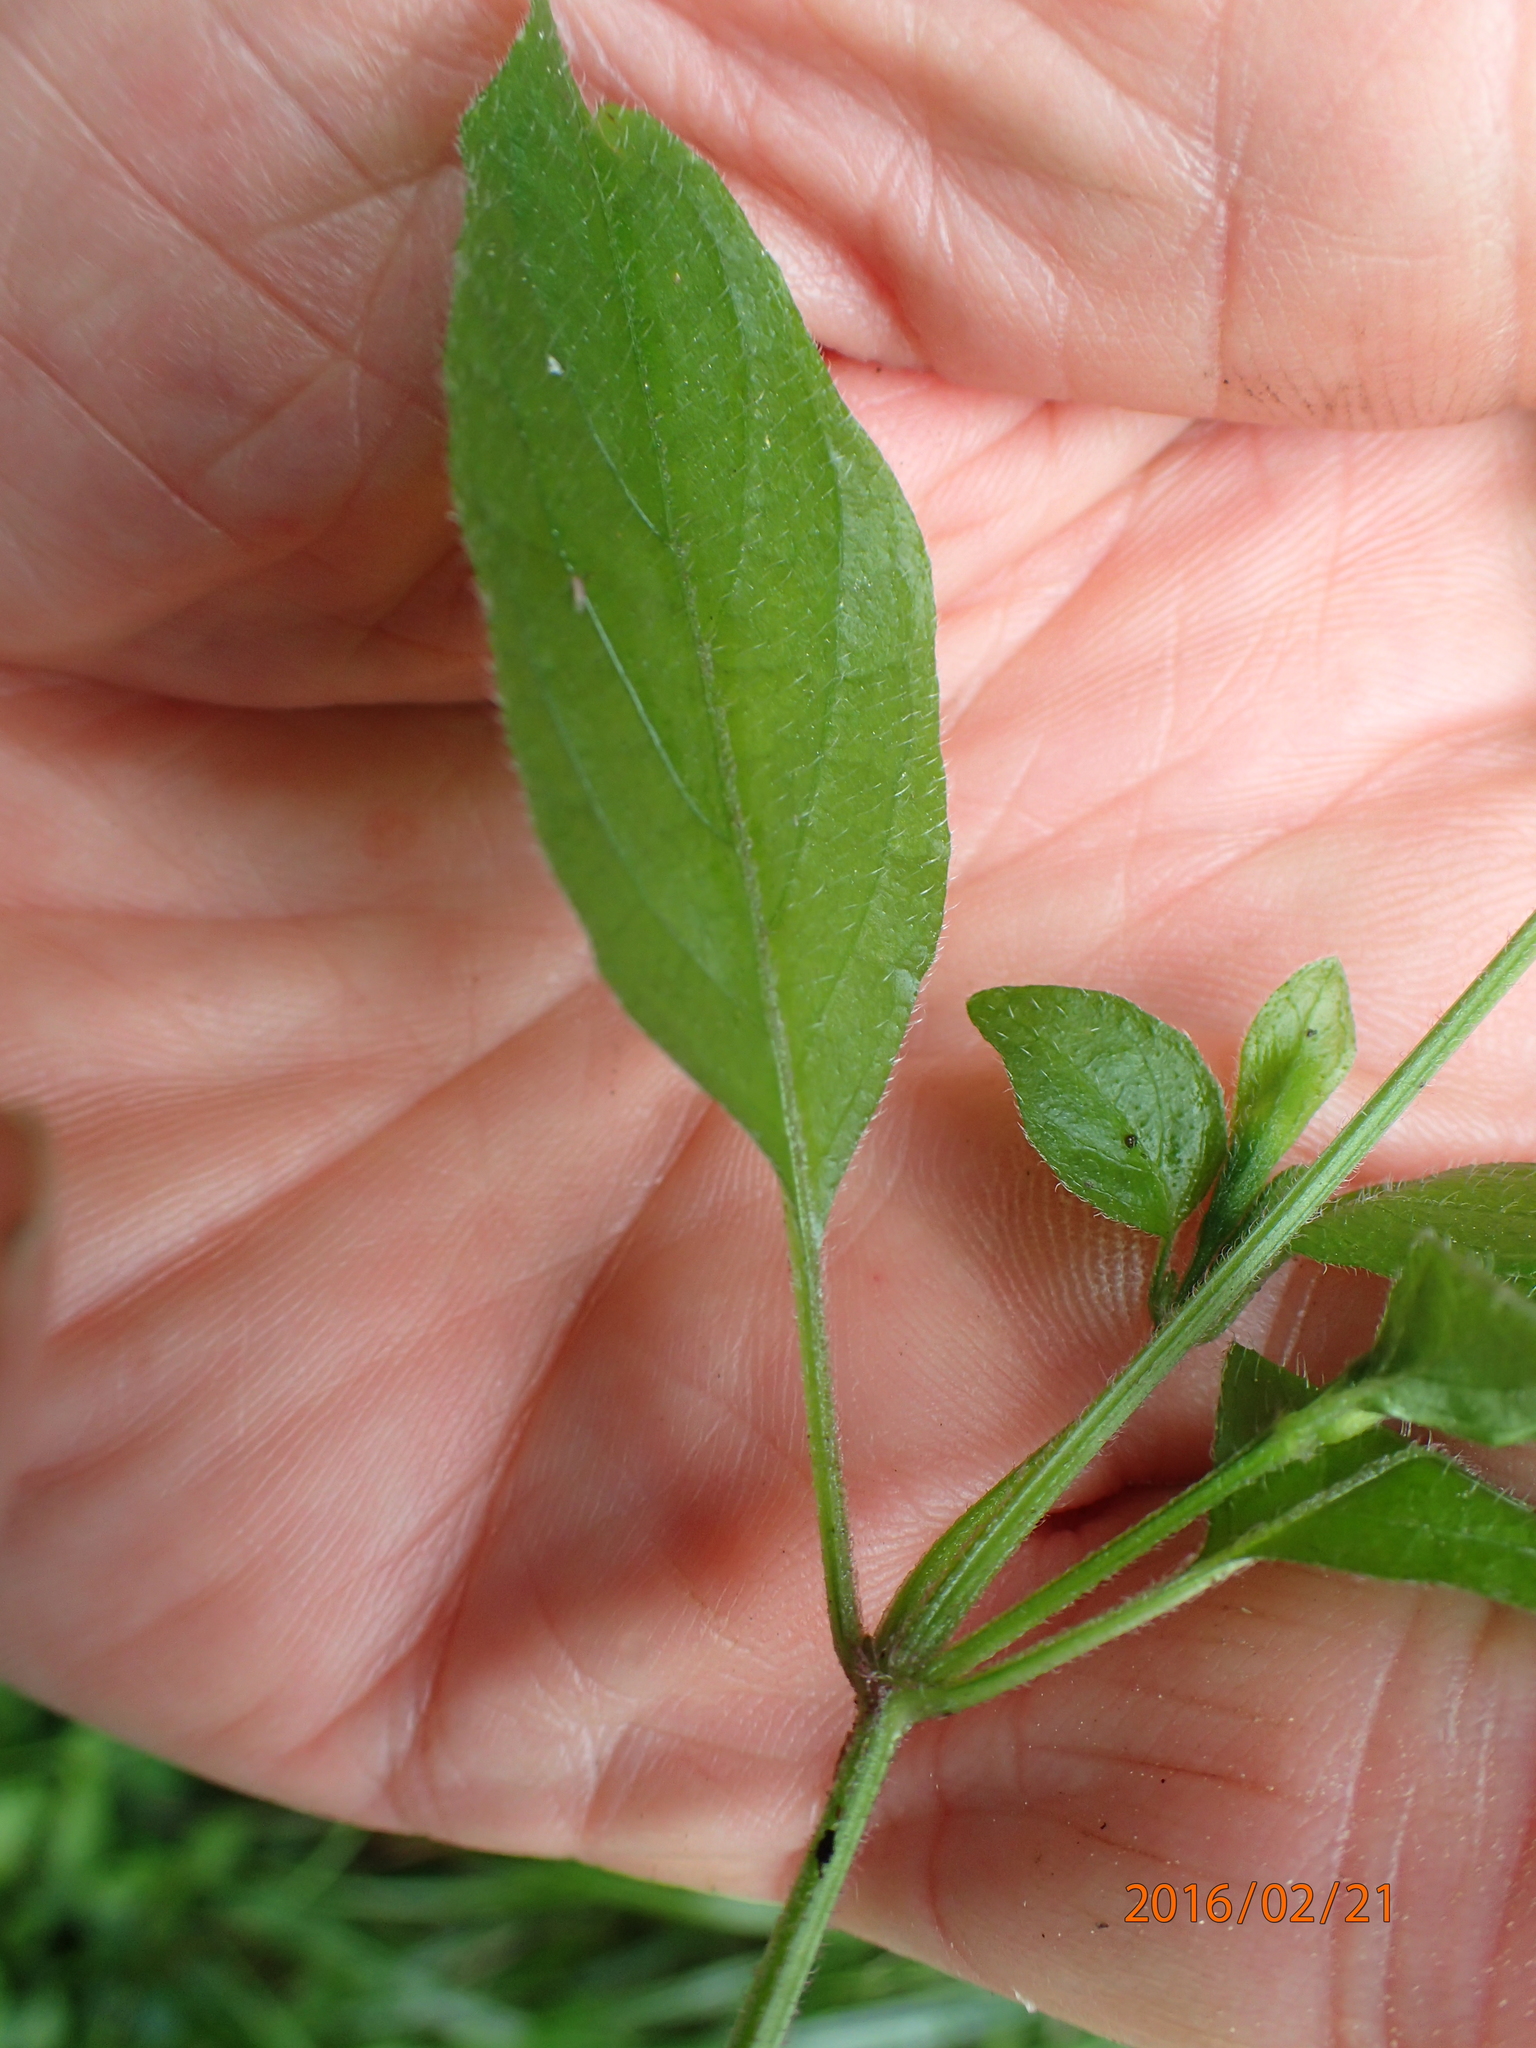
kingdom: Plantae
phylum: Tracheophyta
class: Magnoliopsida
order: Lamiales
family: Acanthaceae
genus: Hypoestes
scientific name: Hypoestes triflora
